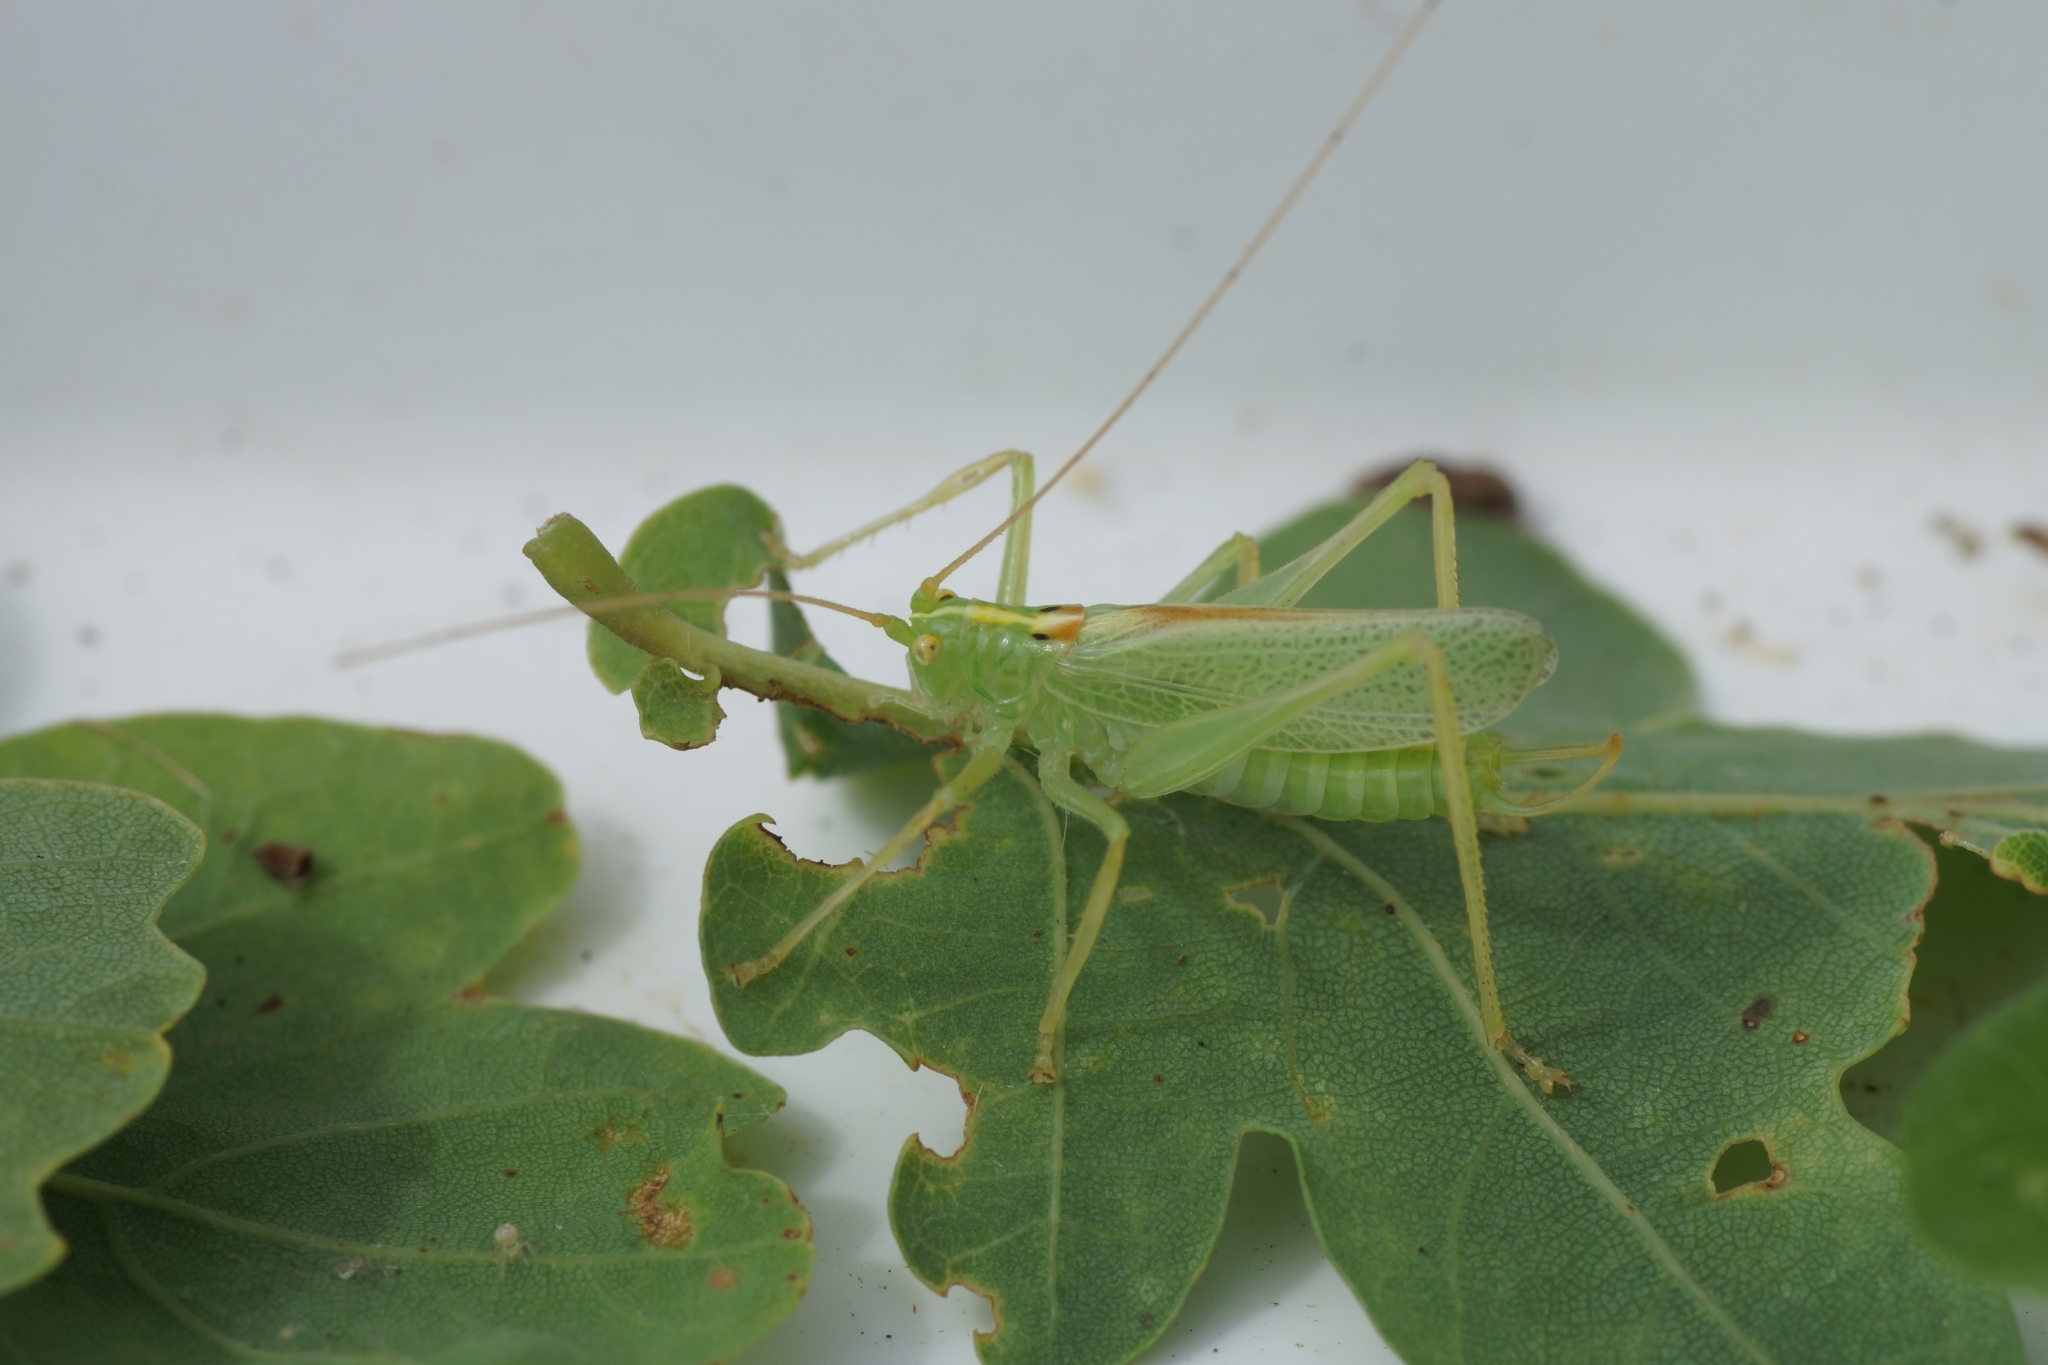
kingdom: Animalia
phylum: Arthropoda
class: Insecta
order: Orthoptera
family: Tettigoniidae
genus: Meconema
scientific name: Meconema thalassinum
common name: Oak bush-cricket
